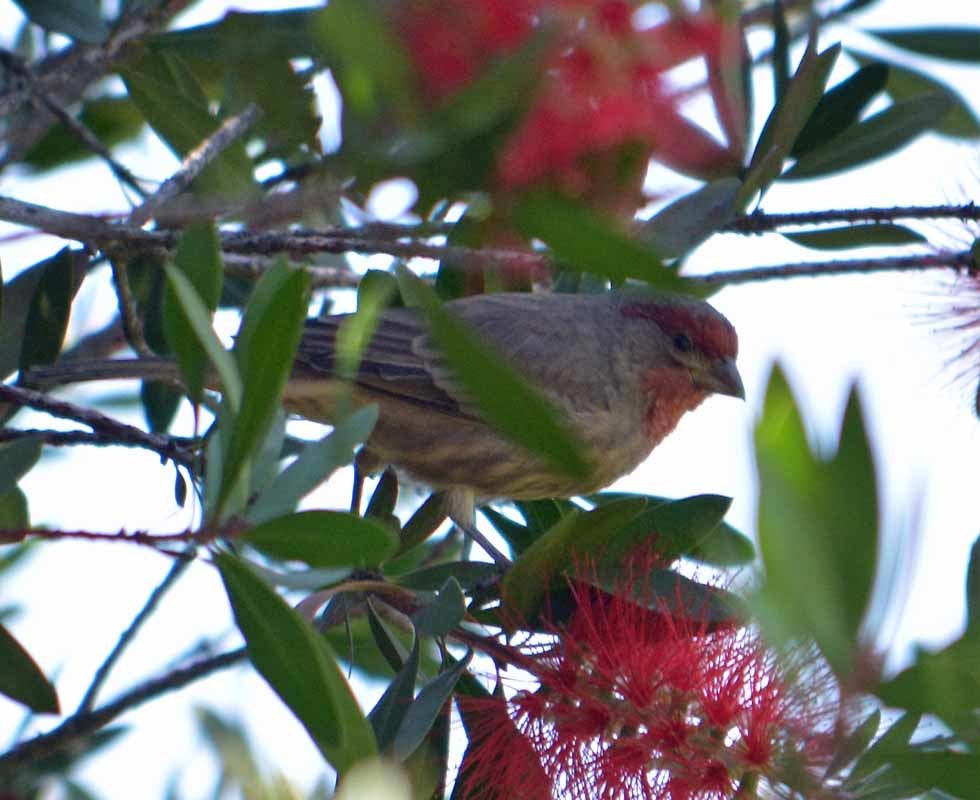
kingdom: Animalia
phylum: Chordata
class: Aves
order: Passeriformes
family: Fringillidae
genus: Haemorhous
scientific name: Haemorhous mexicanus
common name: House finch
